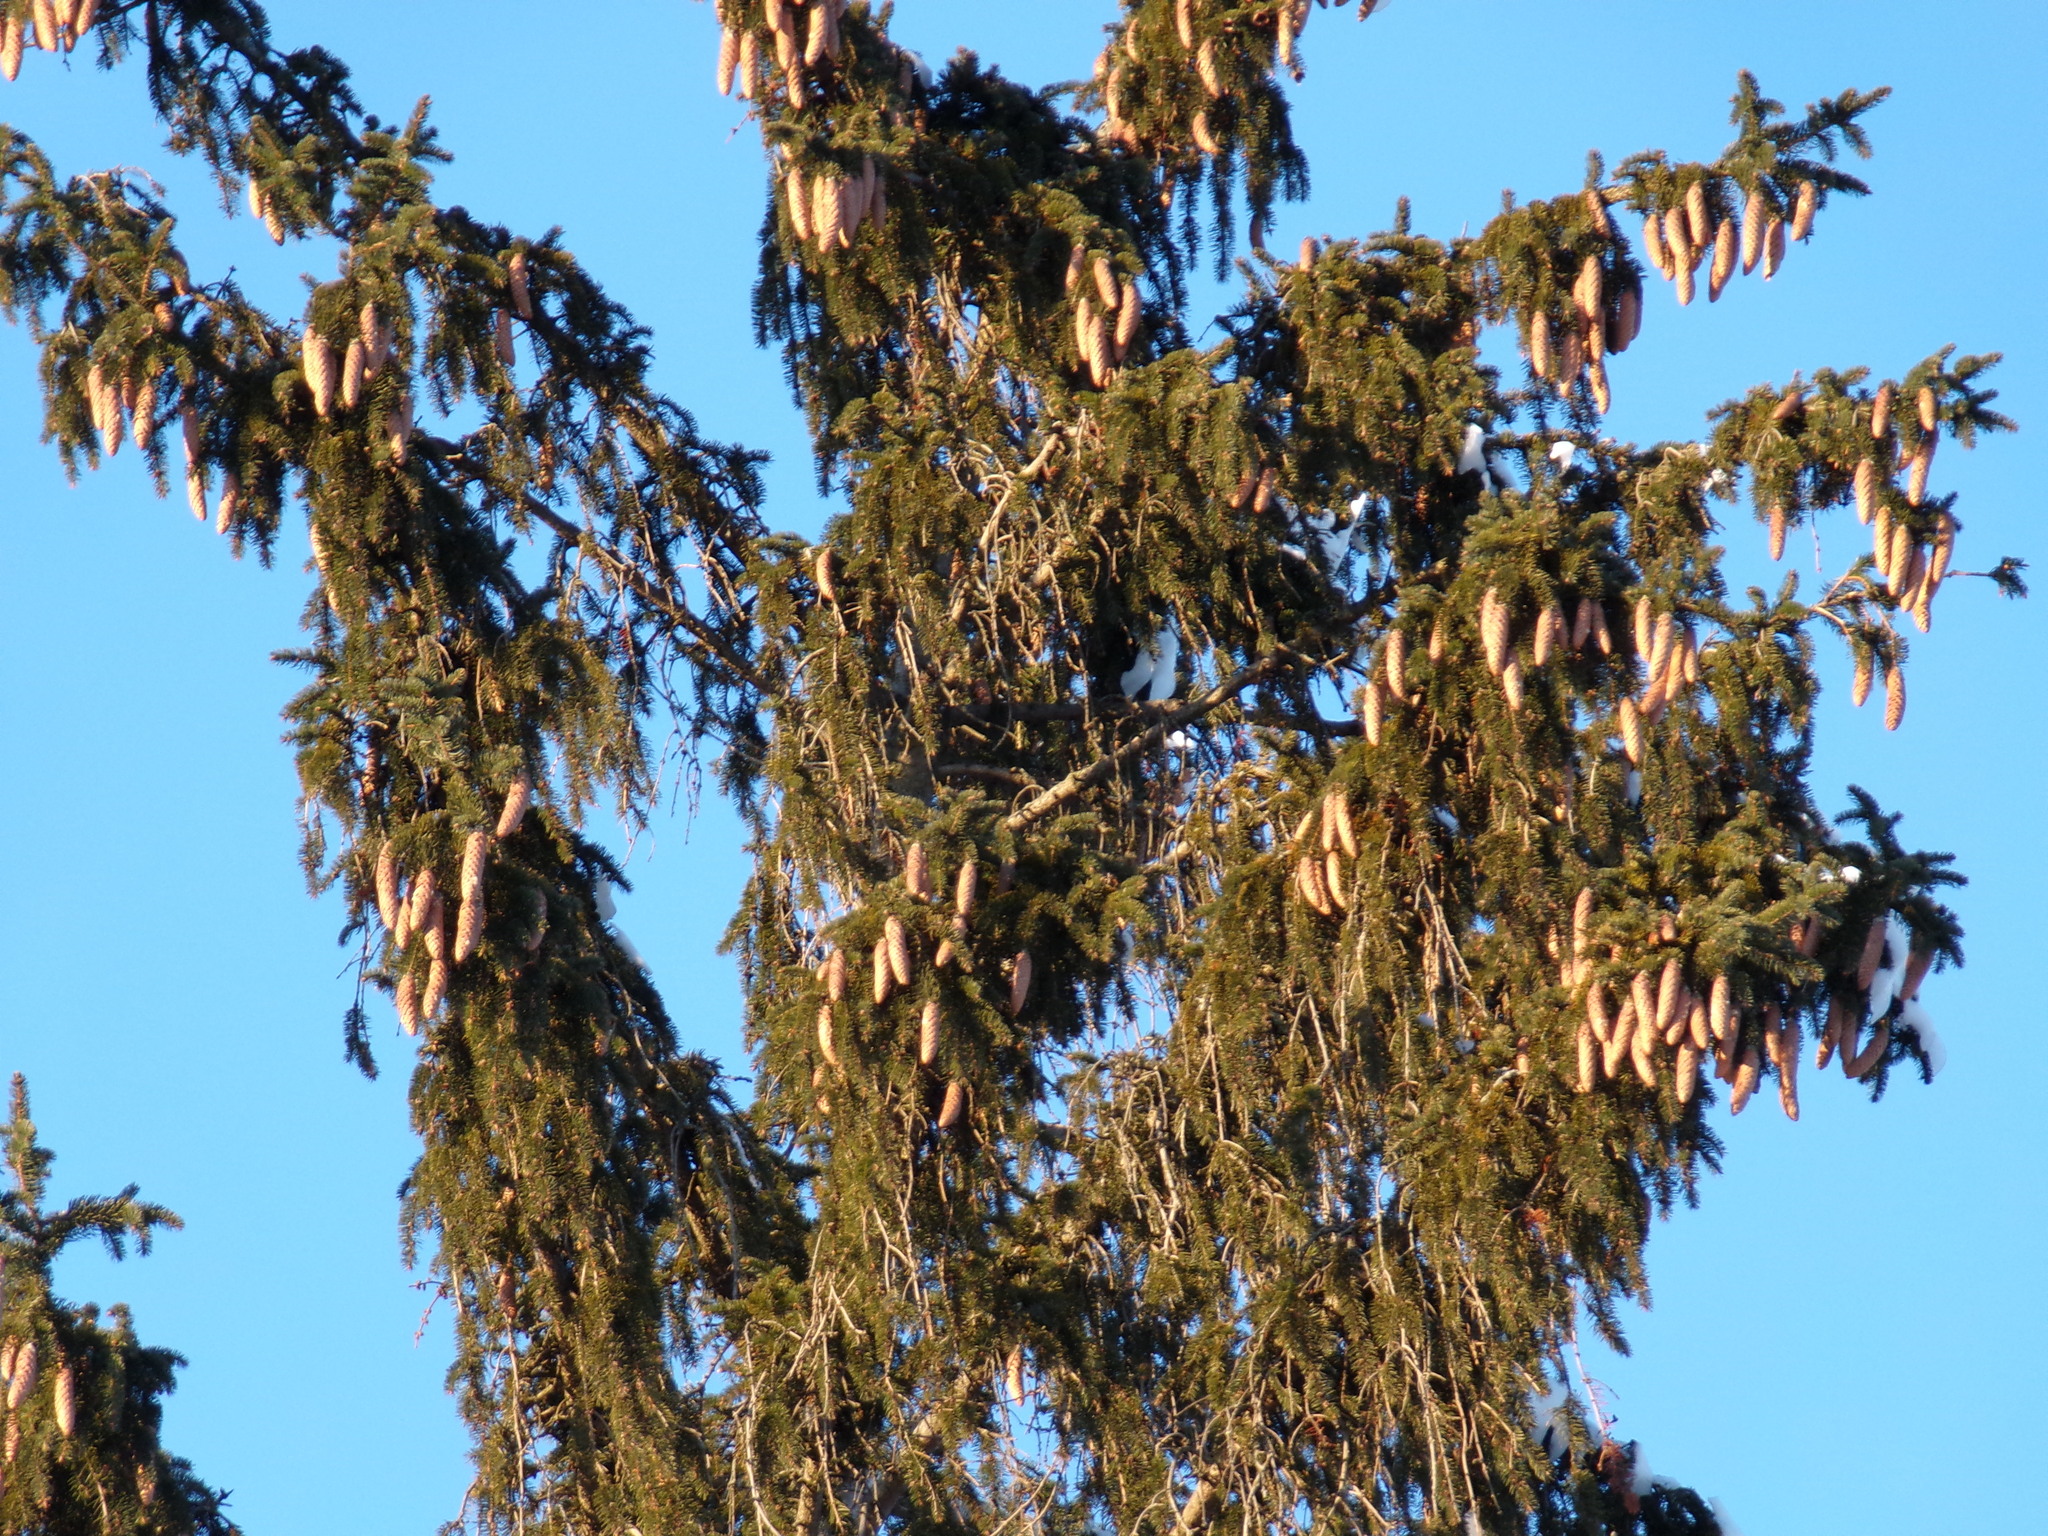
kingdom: Plantae
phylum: Tracheophyta
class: Pinopsida
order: Pinales
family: Pinaceae
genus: Picea
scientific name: Picea abies
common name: Norway spruce
